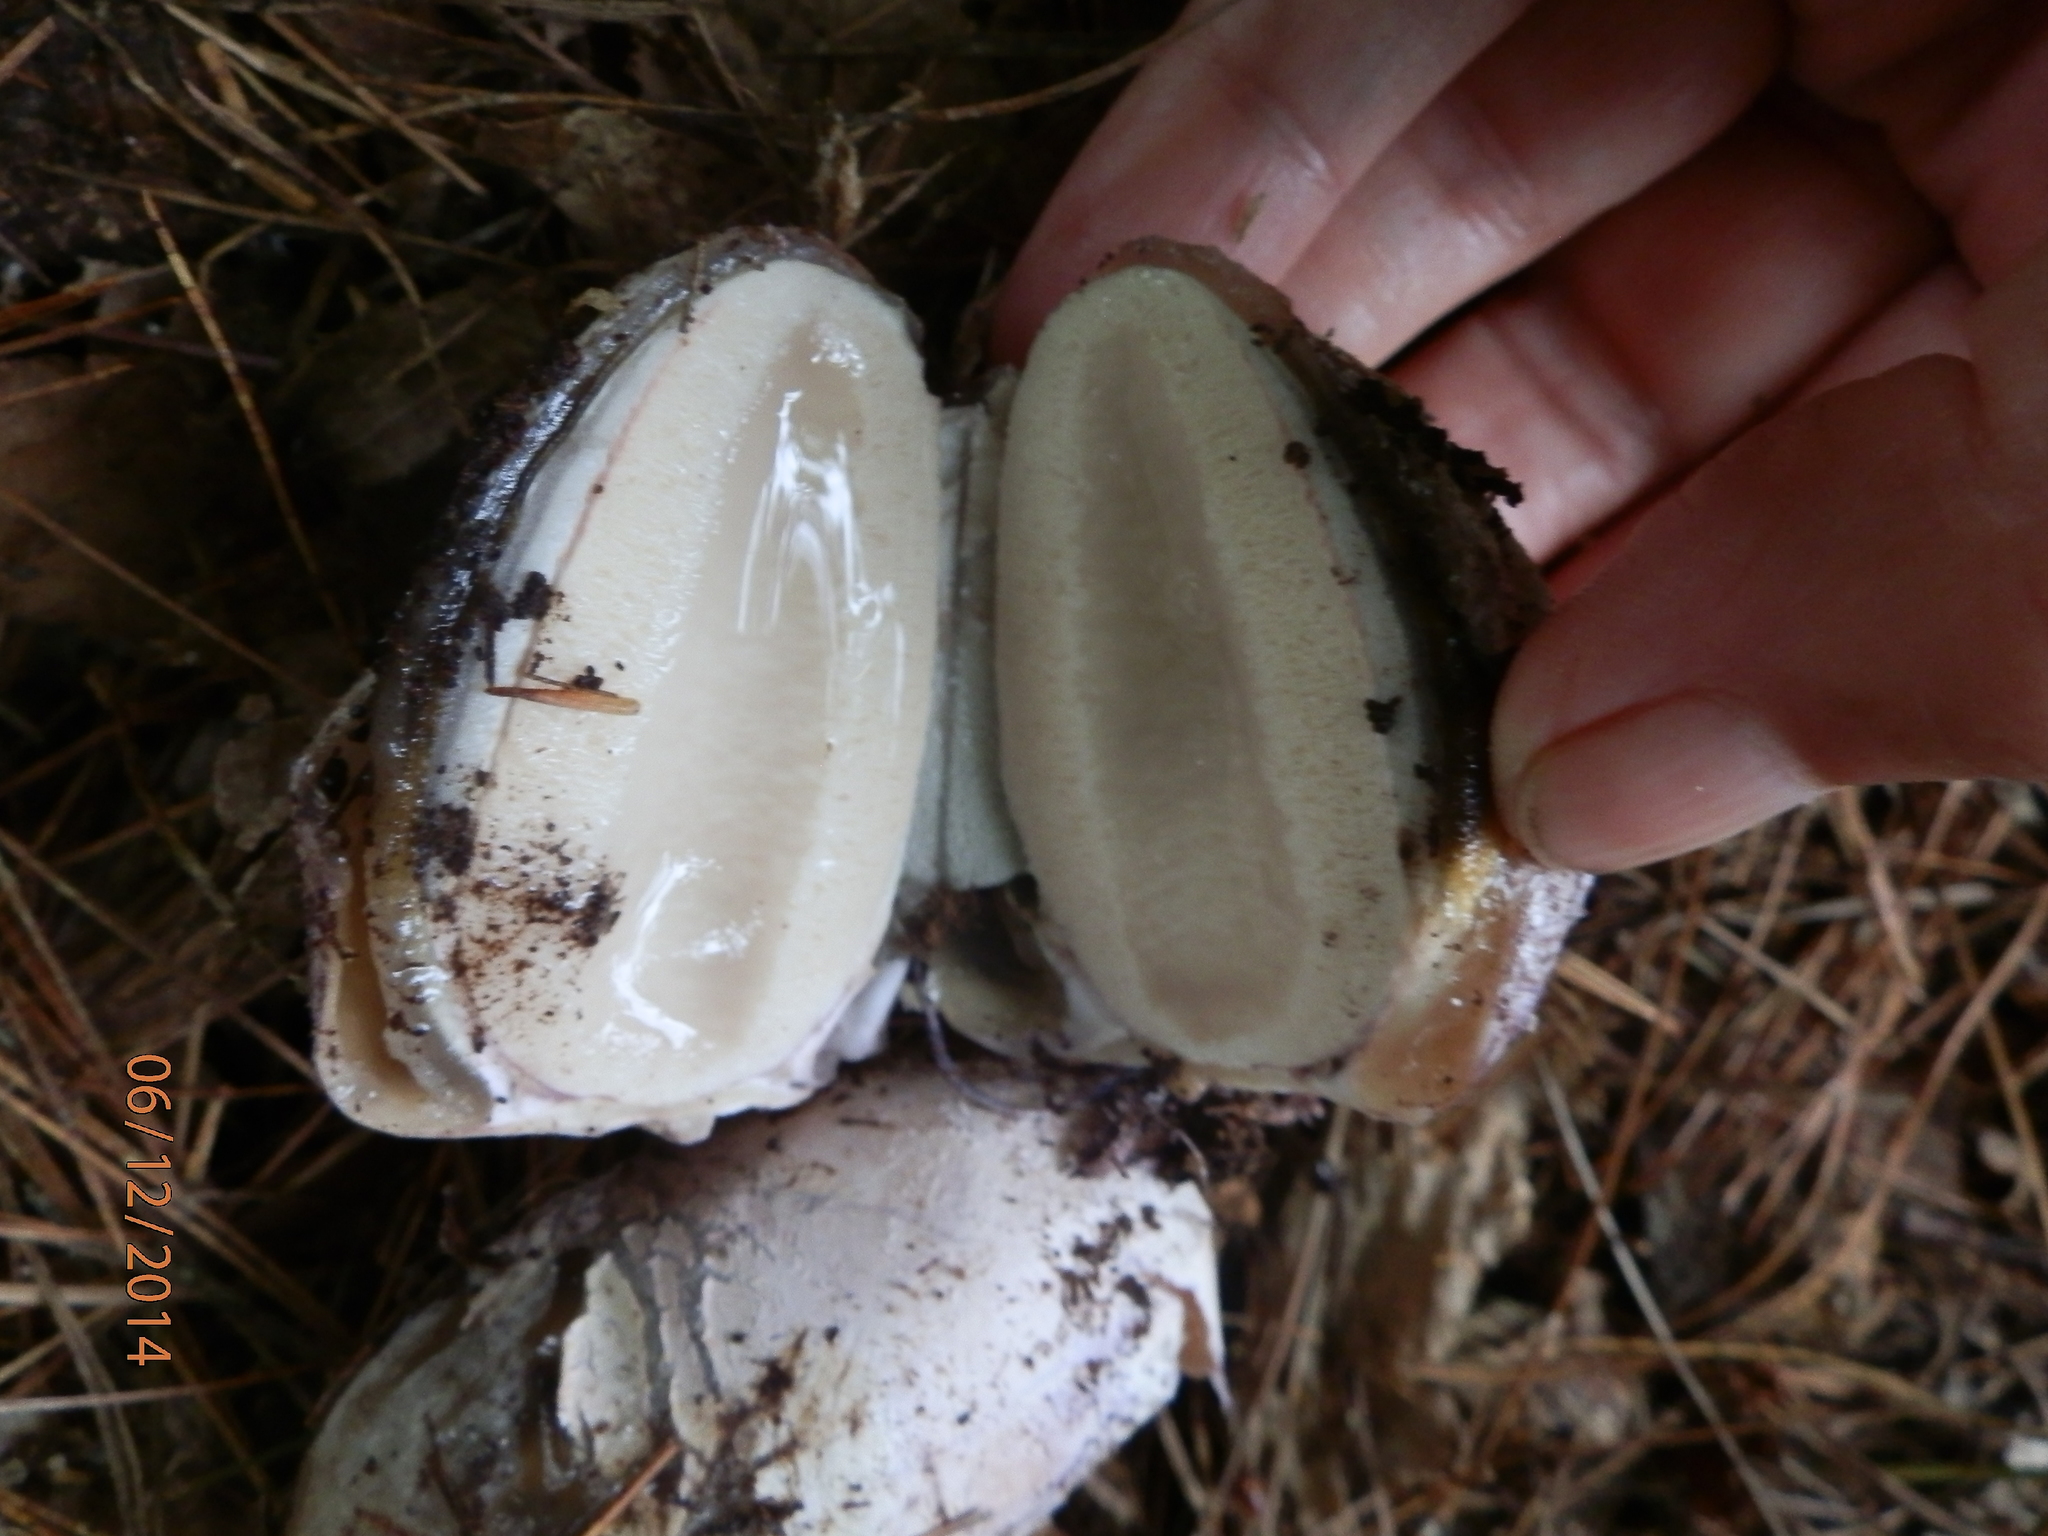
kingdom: Fungi
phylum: Basidiomycota
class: Agaricomycetes
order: Phallales
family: Phallaceae
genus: Phallus
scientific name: Phallus ravenelii
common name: Ravenel's stinkhorn
